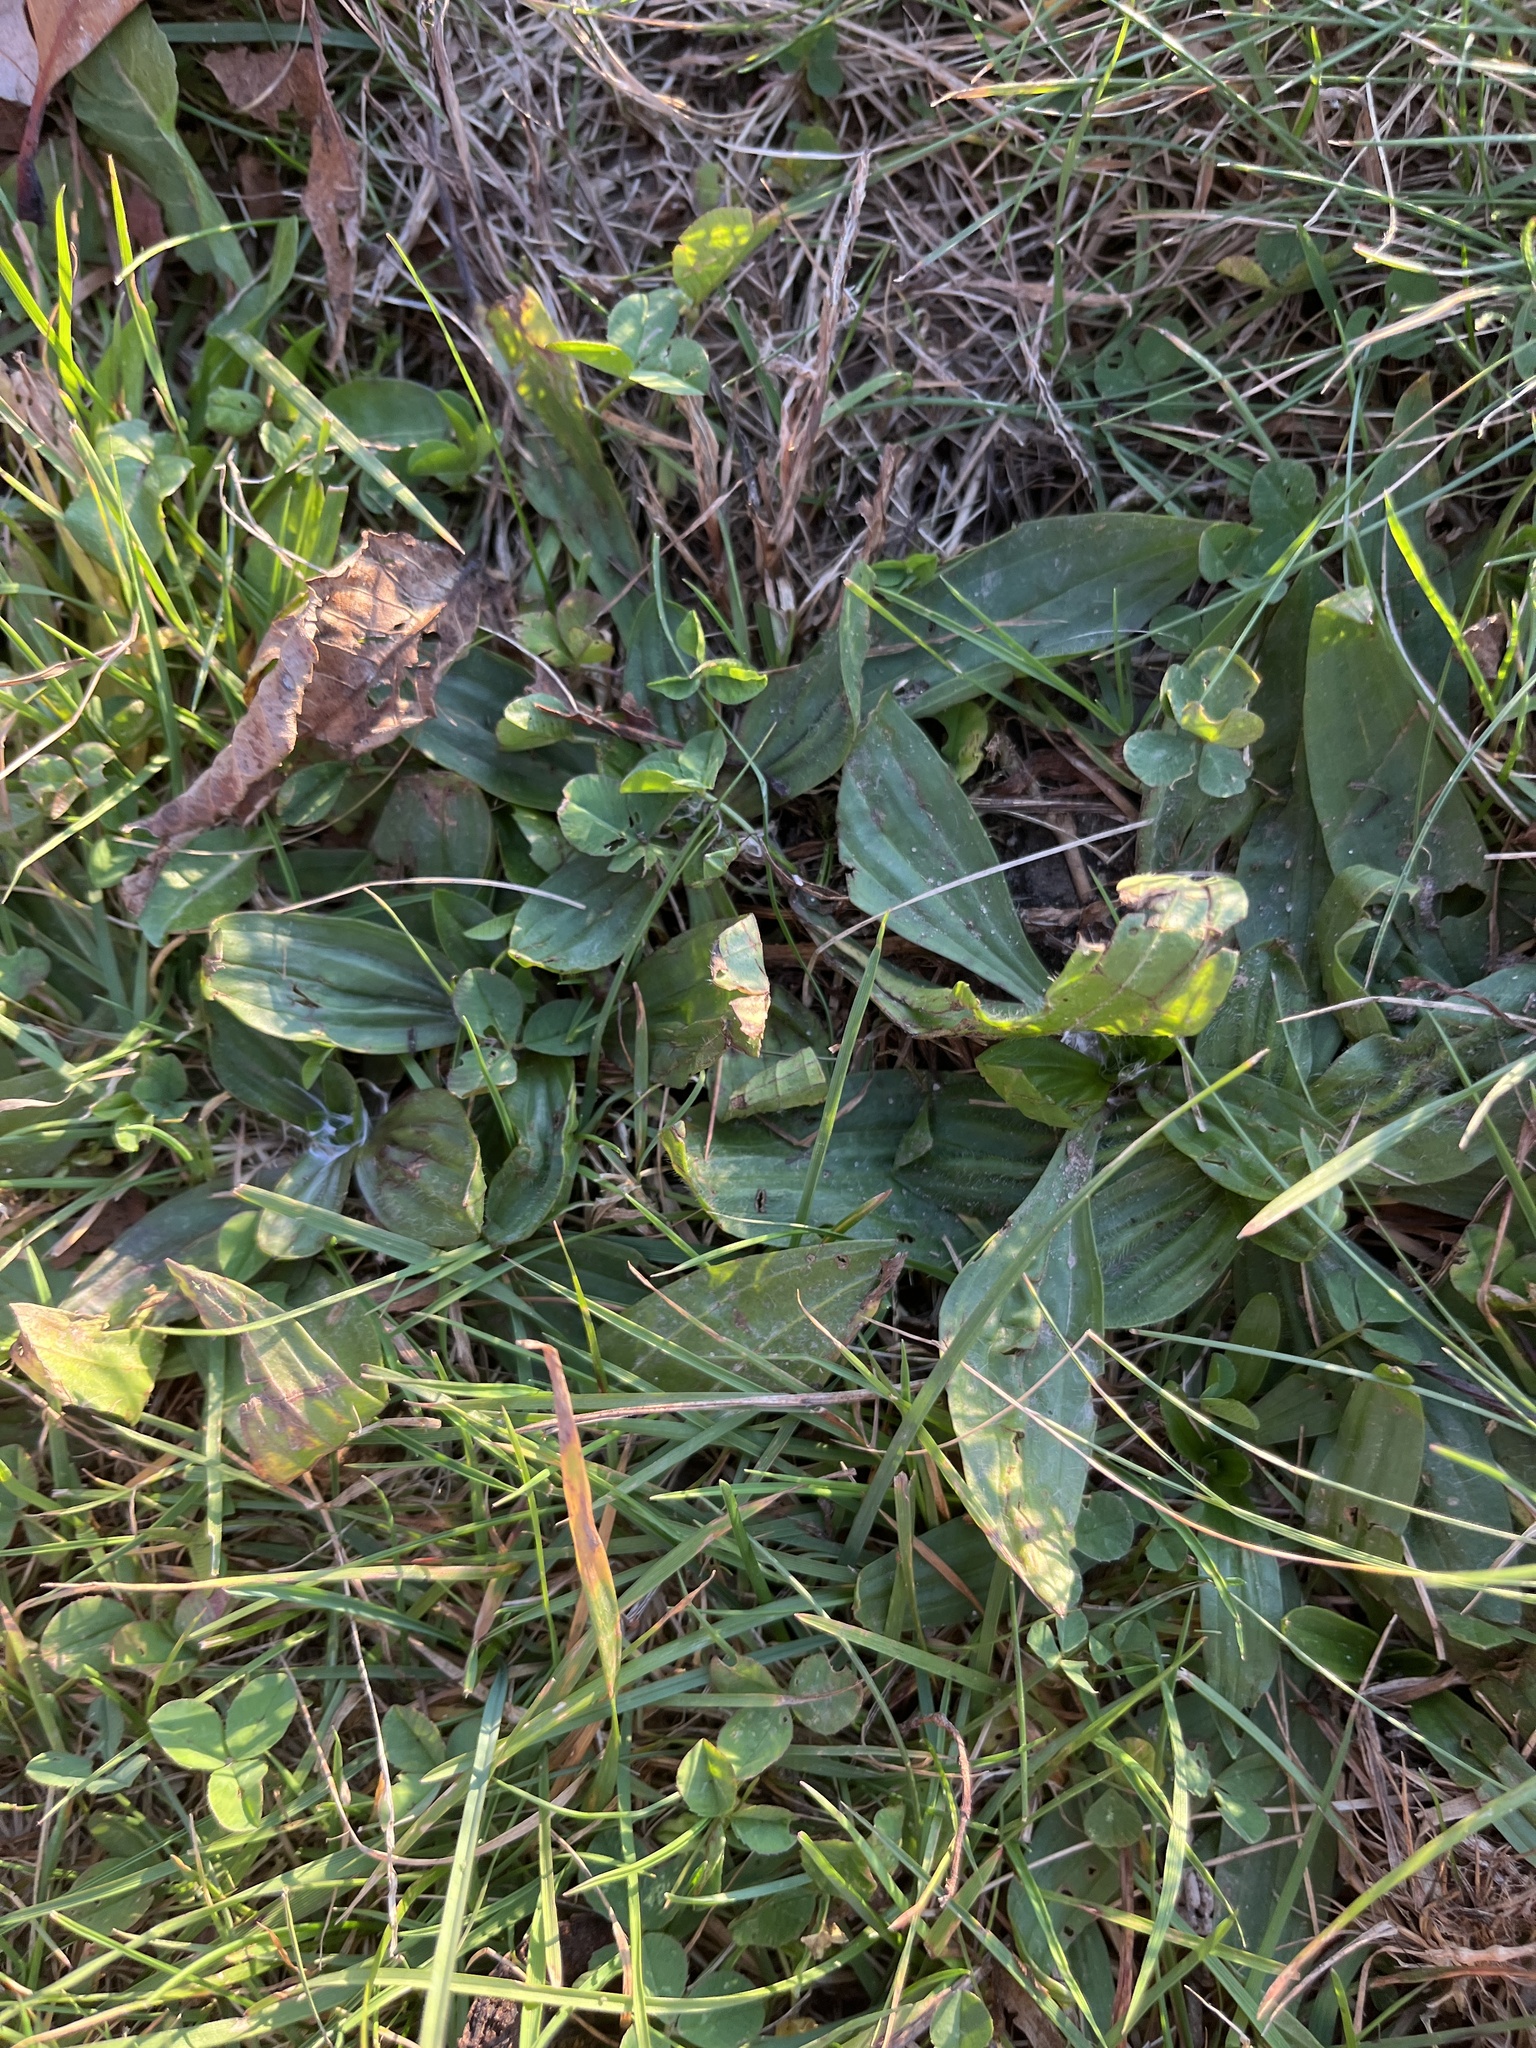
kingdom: Plantae
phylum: Tracheophyta
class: Magnoliopsida
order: Lamiales
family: Plantaginaceae
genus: Plantago
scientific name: Plantago lanceolata
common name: Ribwort plantain
